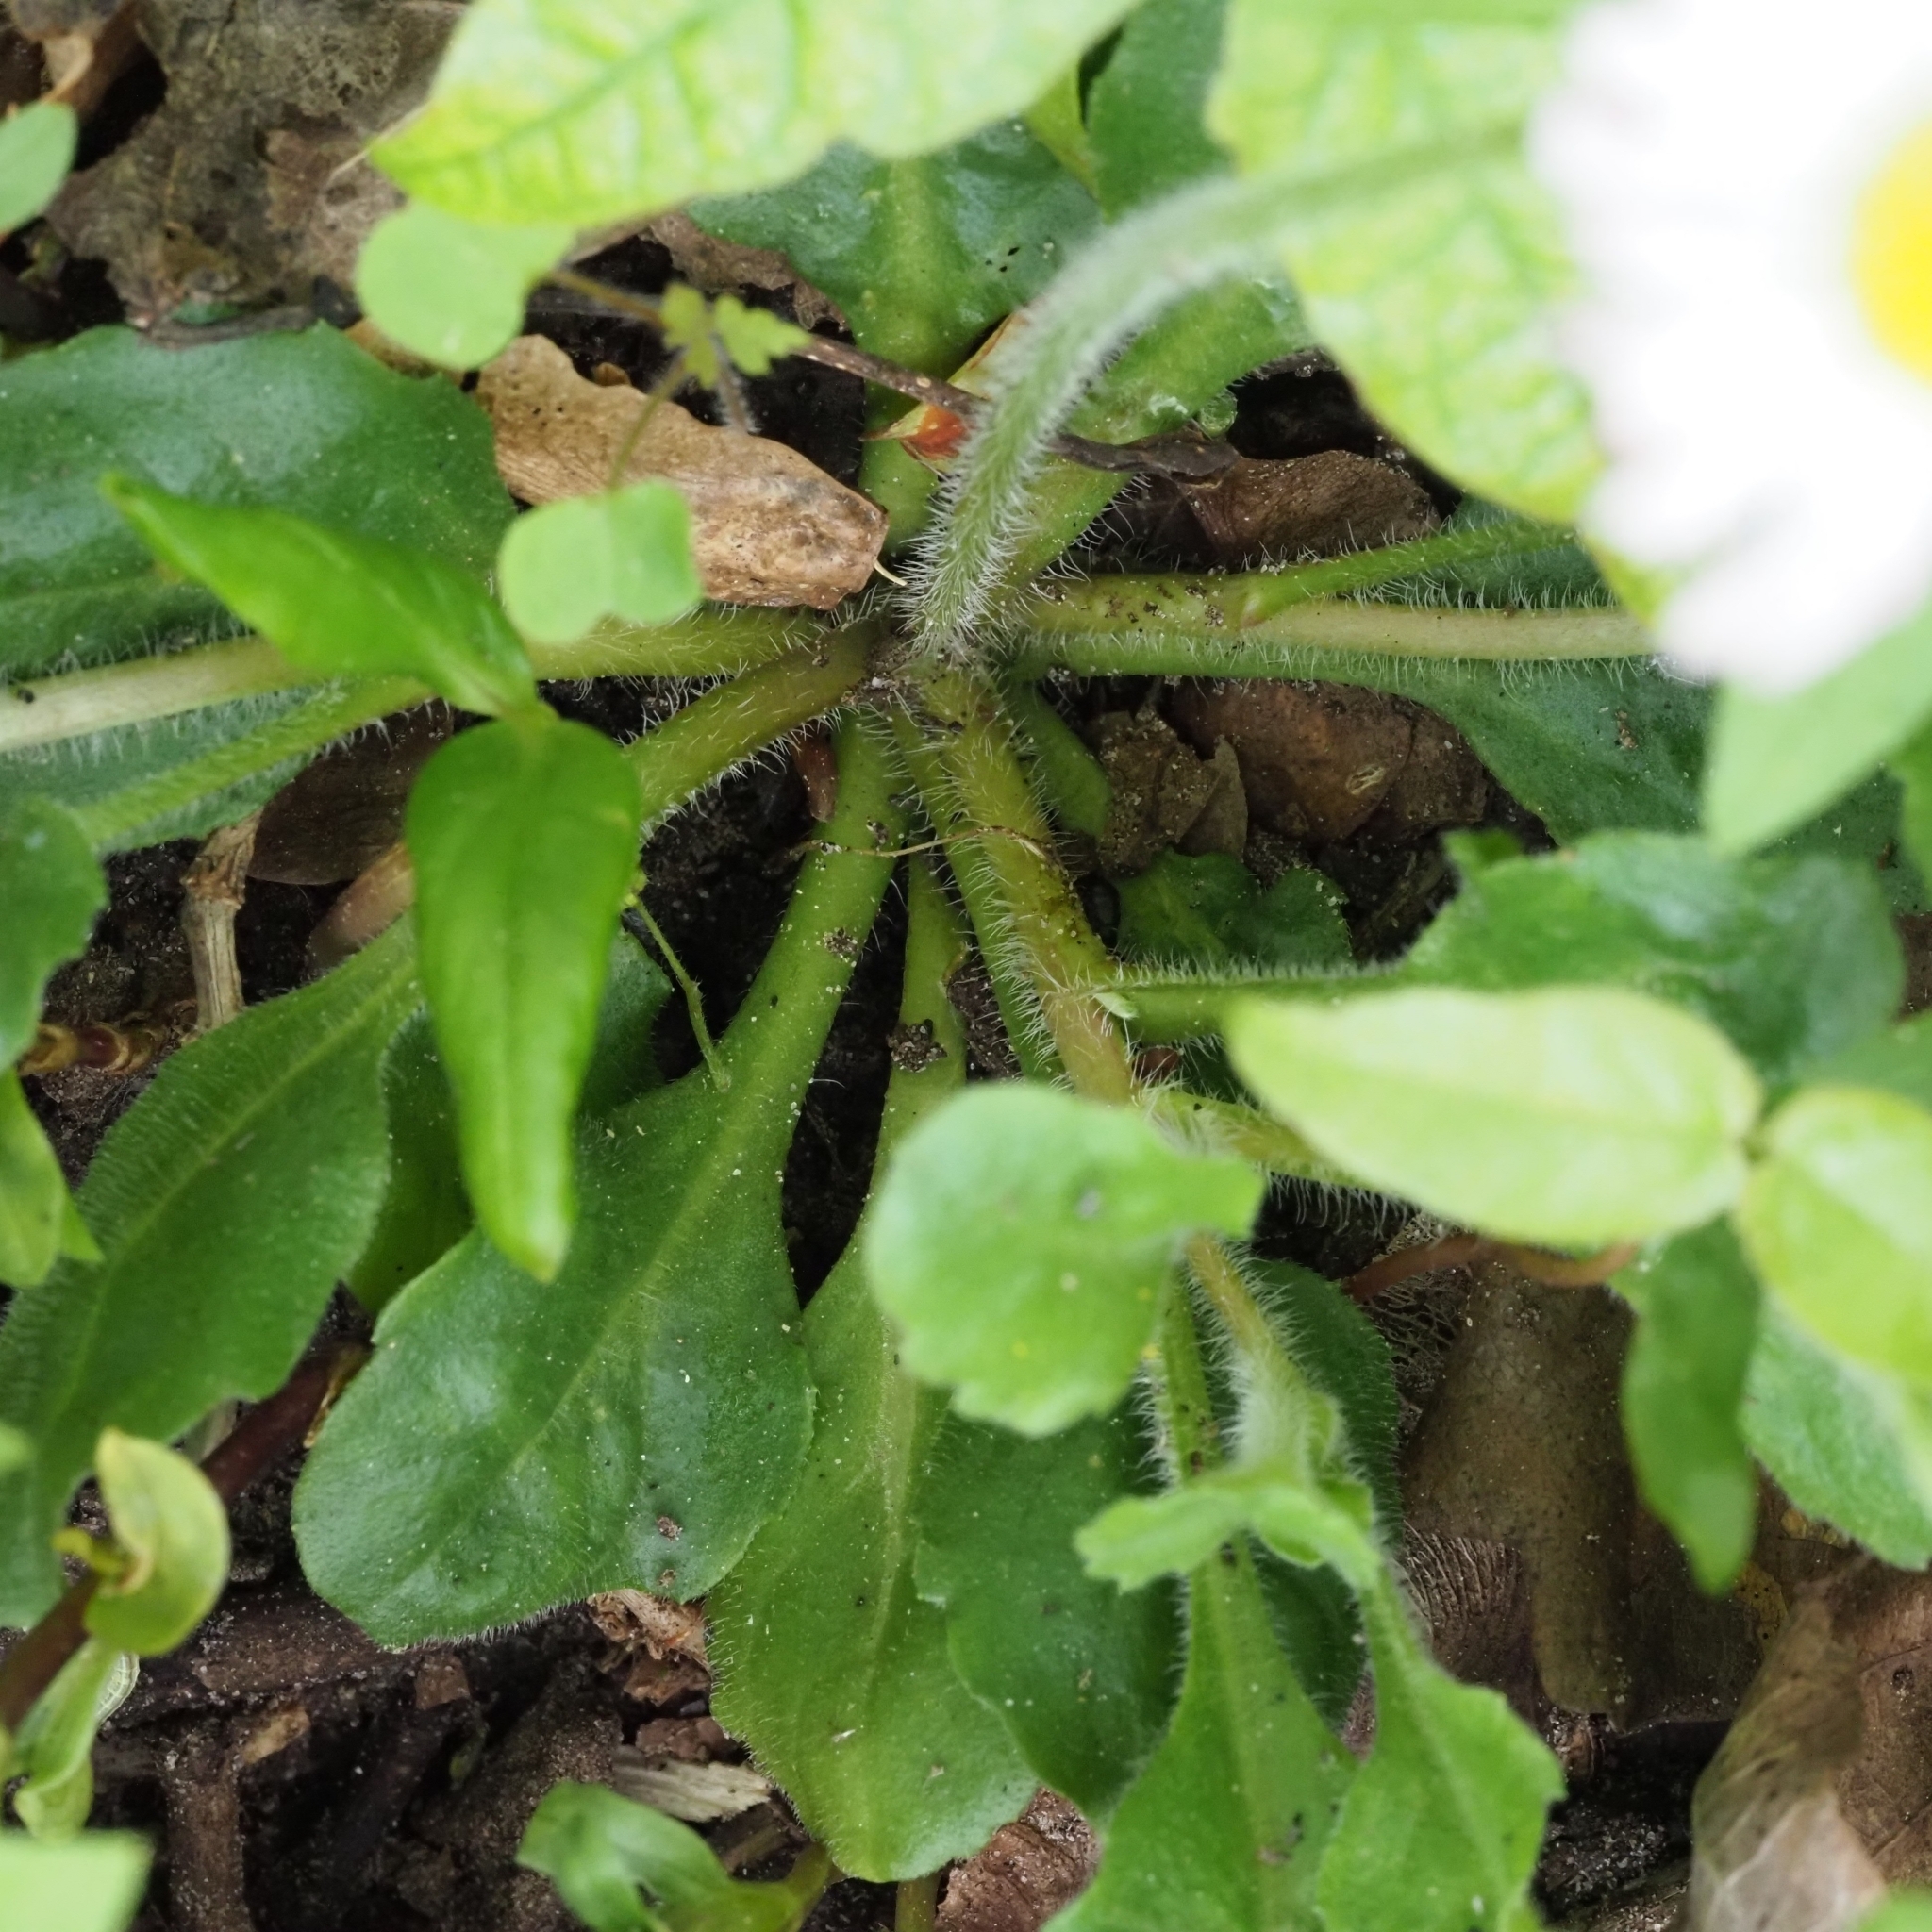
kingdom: Plantae
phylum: Tracheophyta
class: Magnoliopsida
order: Asterales
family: Asteraceae
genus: Bellis
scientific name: Bellis perennis
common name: Lawndaisy
